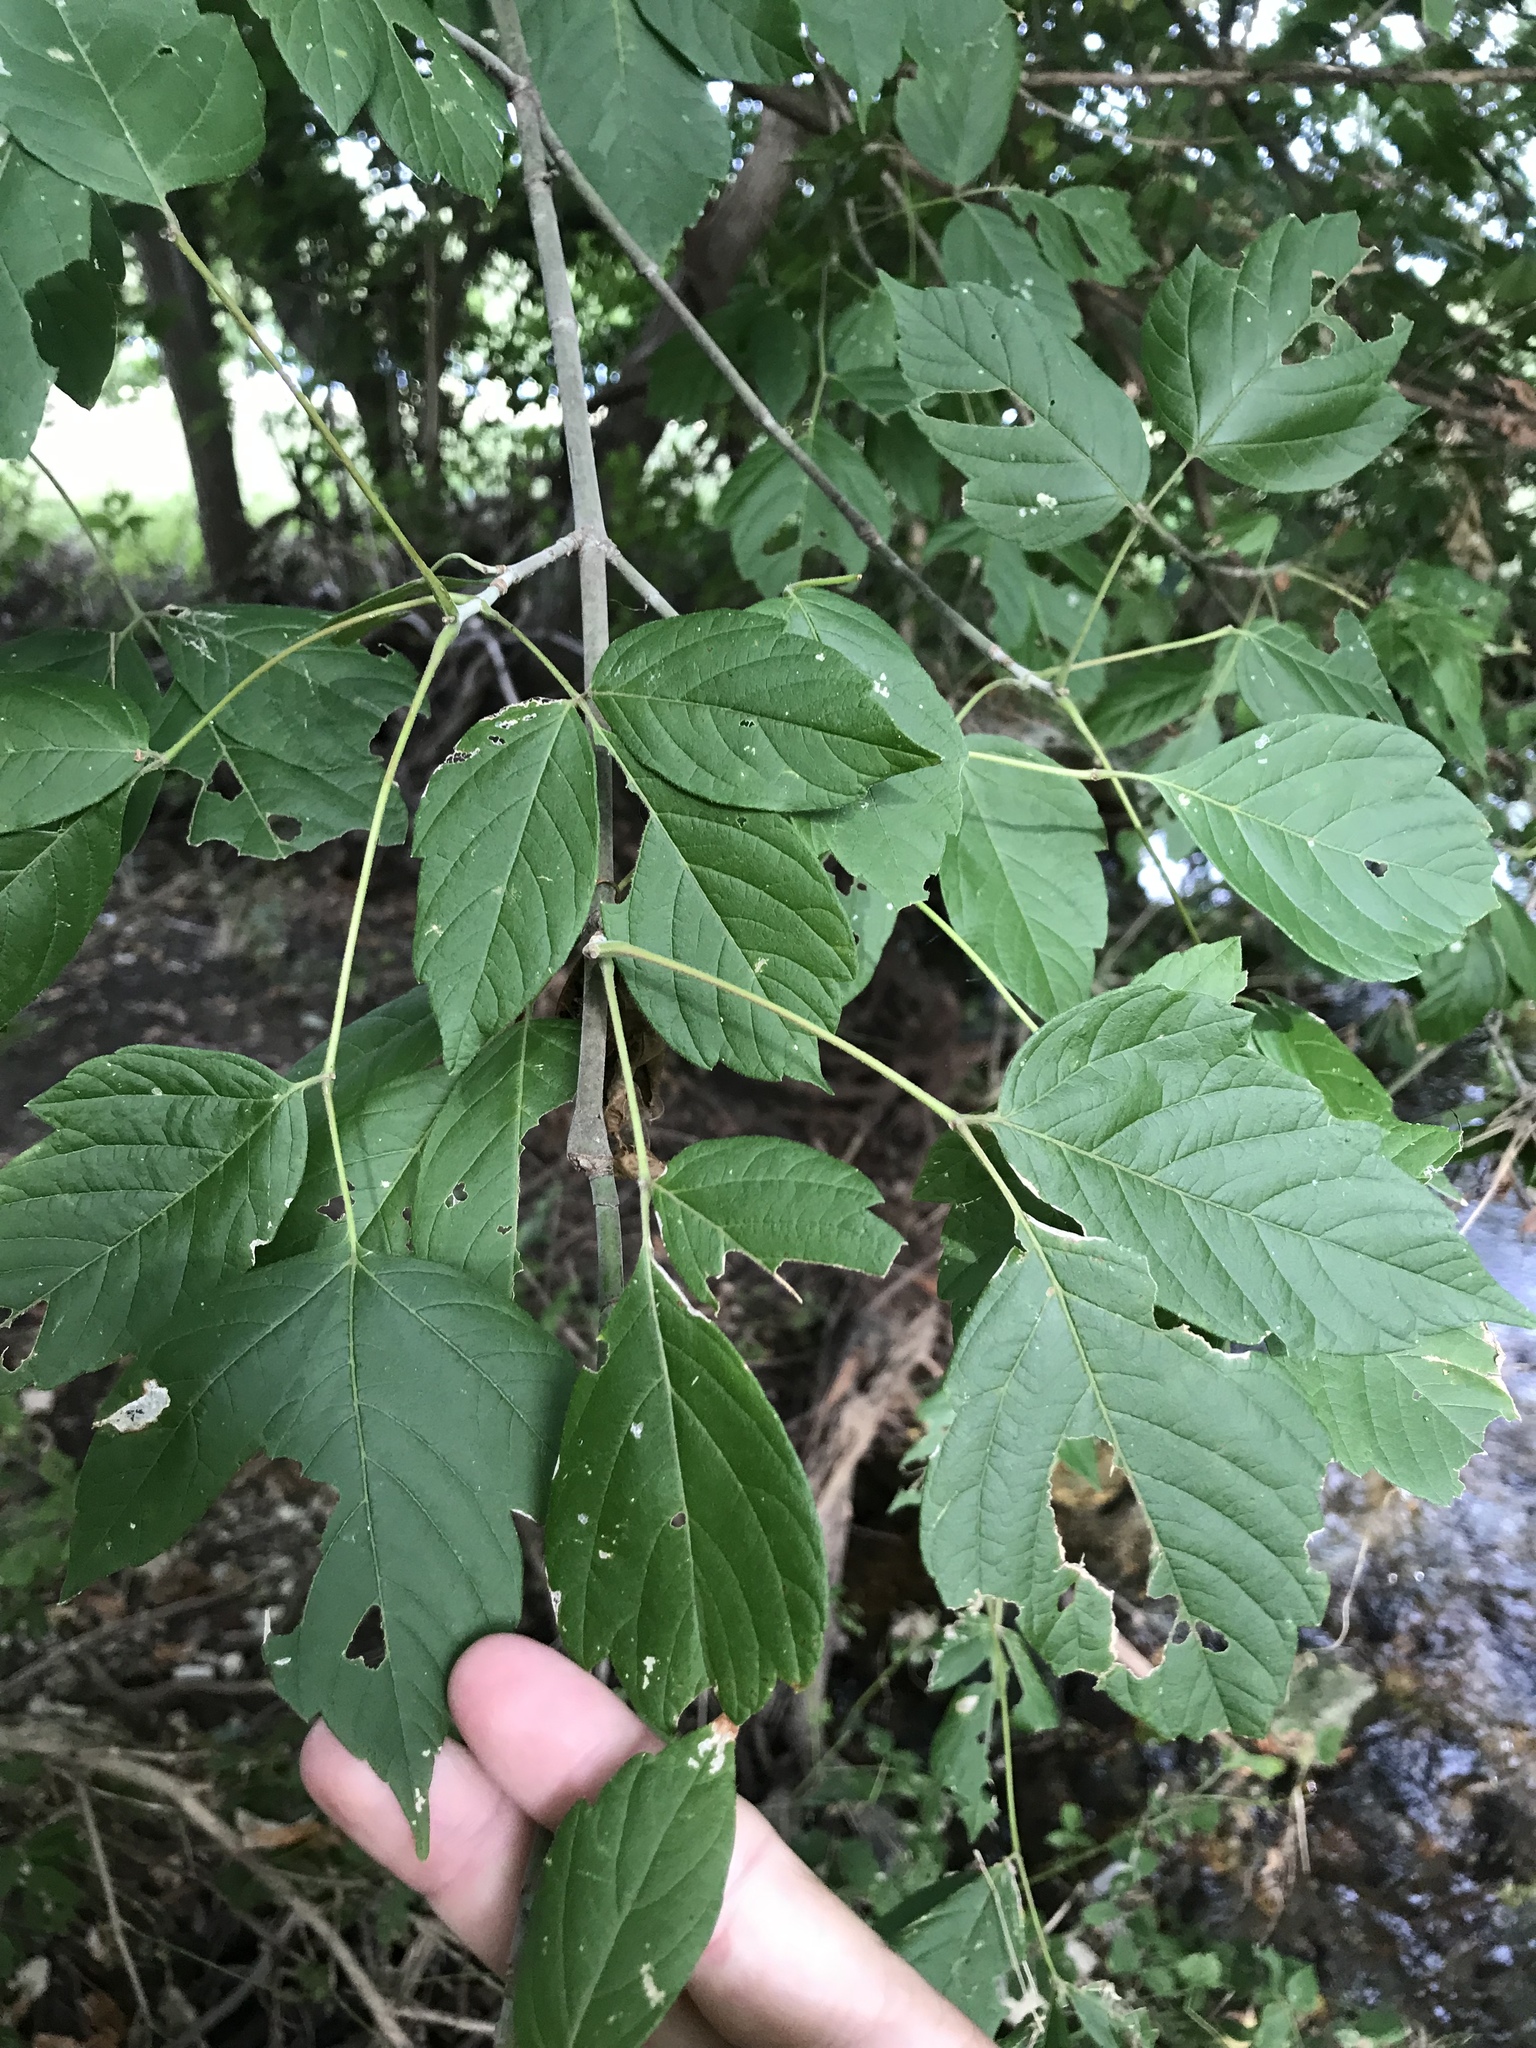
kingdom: Plantae
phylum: Tracheophyta
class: Magnoliopsida
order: Sapindales
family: Sapindaceae
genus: Acer
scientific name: Acer negundo
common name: Ashleaf maple
